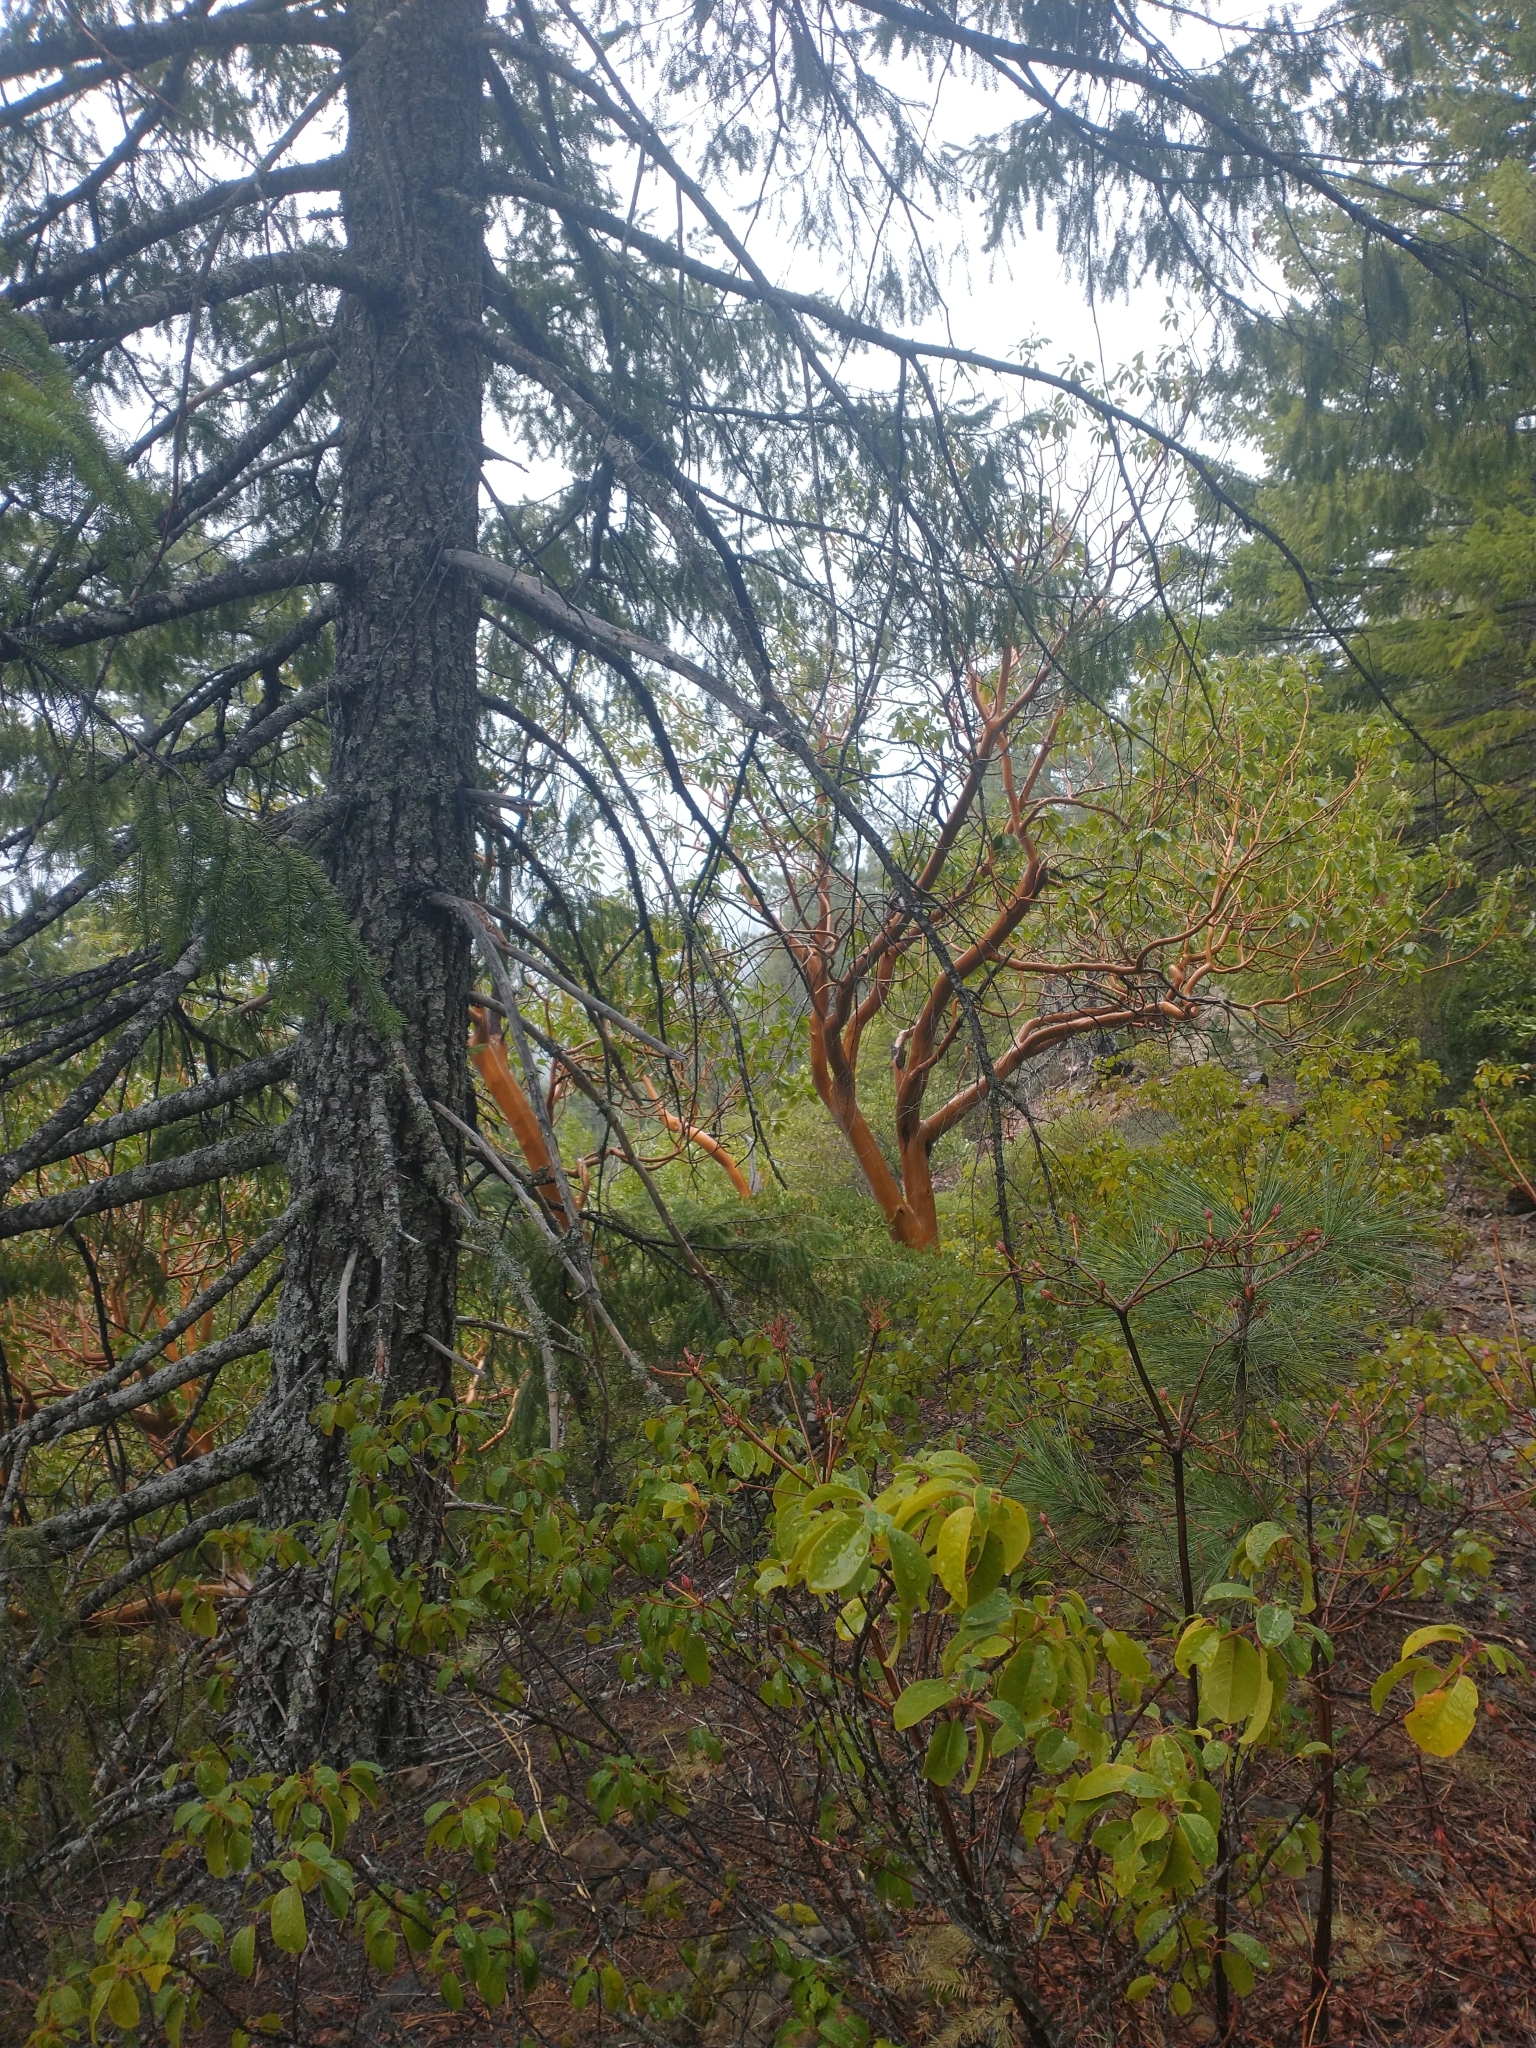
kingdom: Plantae
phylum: Tracheophyta
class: Magnoliopsida
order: Ericales
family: Ericaceae
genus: Arbutus
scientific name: Arbutus menziesii
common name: Pacific madrone
